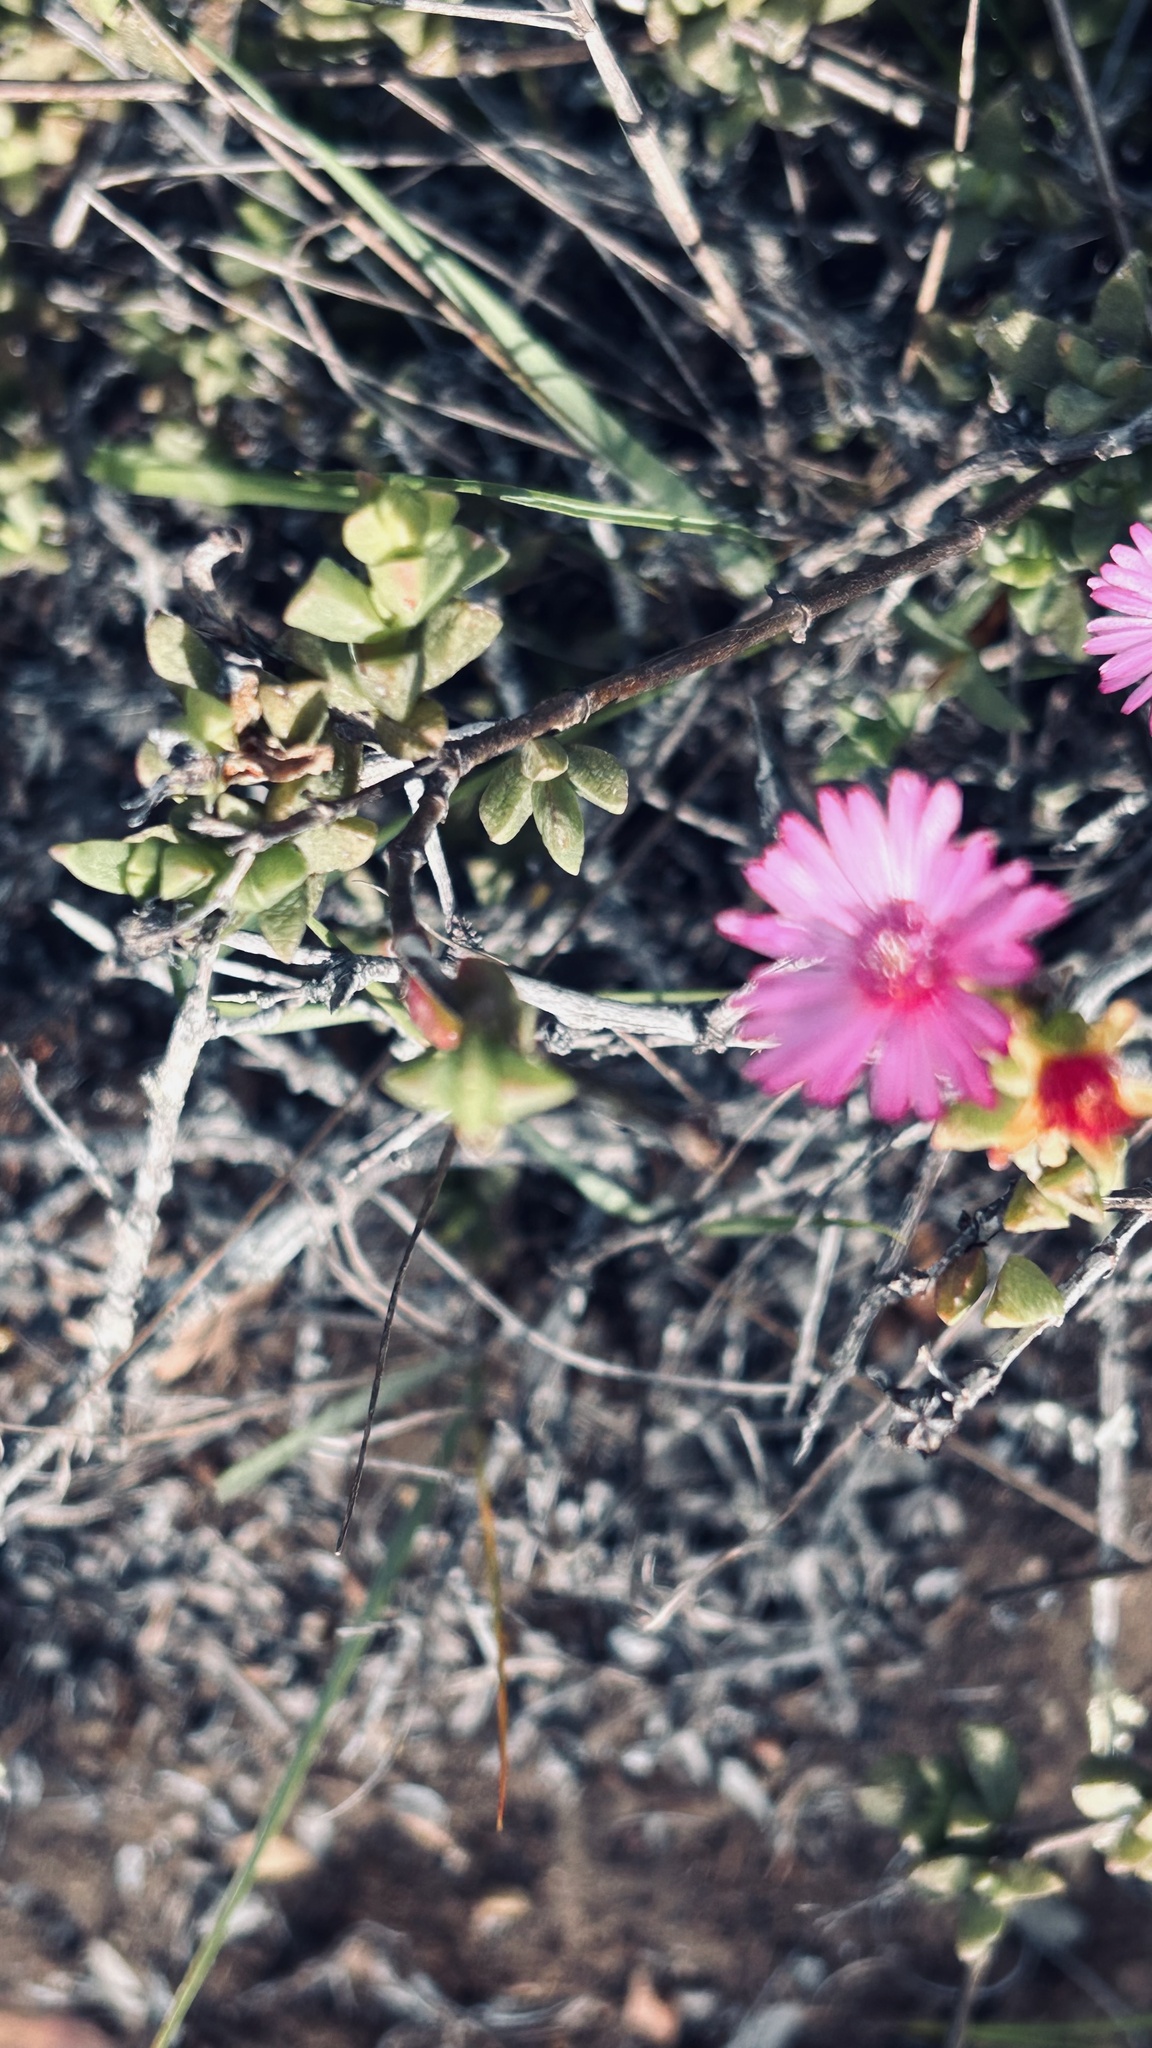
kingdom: Plantae
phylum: Tracheophyta
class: Magnoliopsida
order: Caryophyllales
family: Aizoaceae
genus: Ruschia
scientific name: Ruschia leptocalyx
